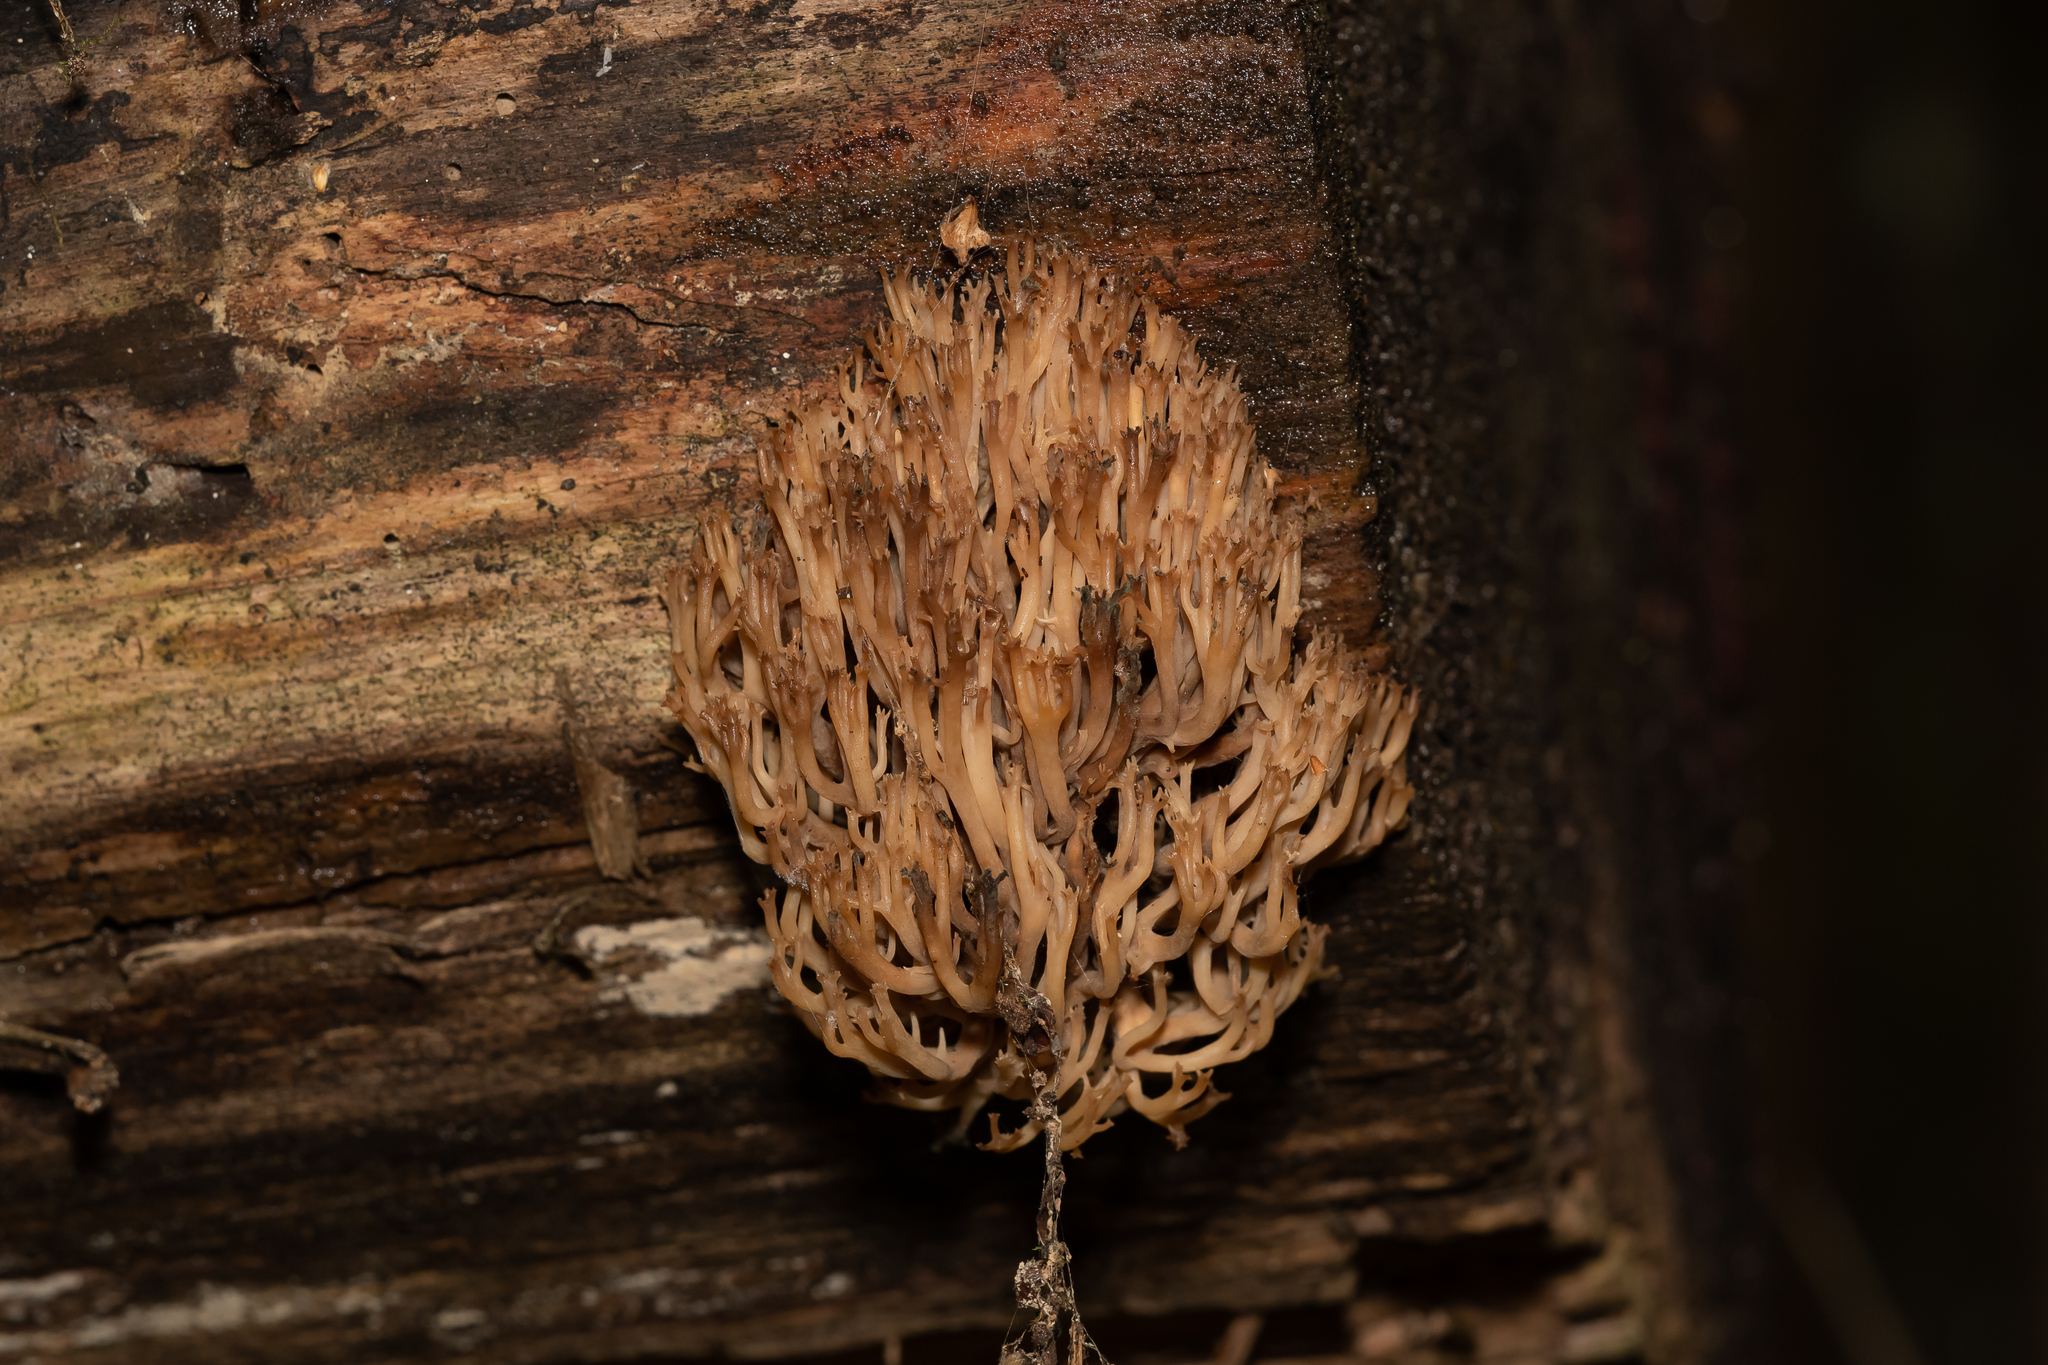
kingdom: Fungi
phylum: Basidiomycota
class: Agaricomycetes
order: Russulales
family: Auriscalpiaceae
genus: Artomyces
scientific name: Artomyces microsporus
